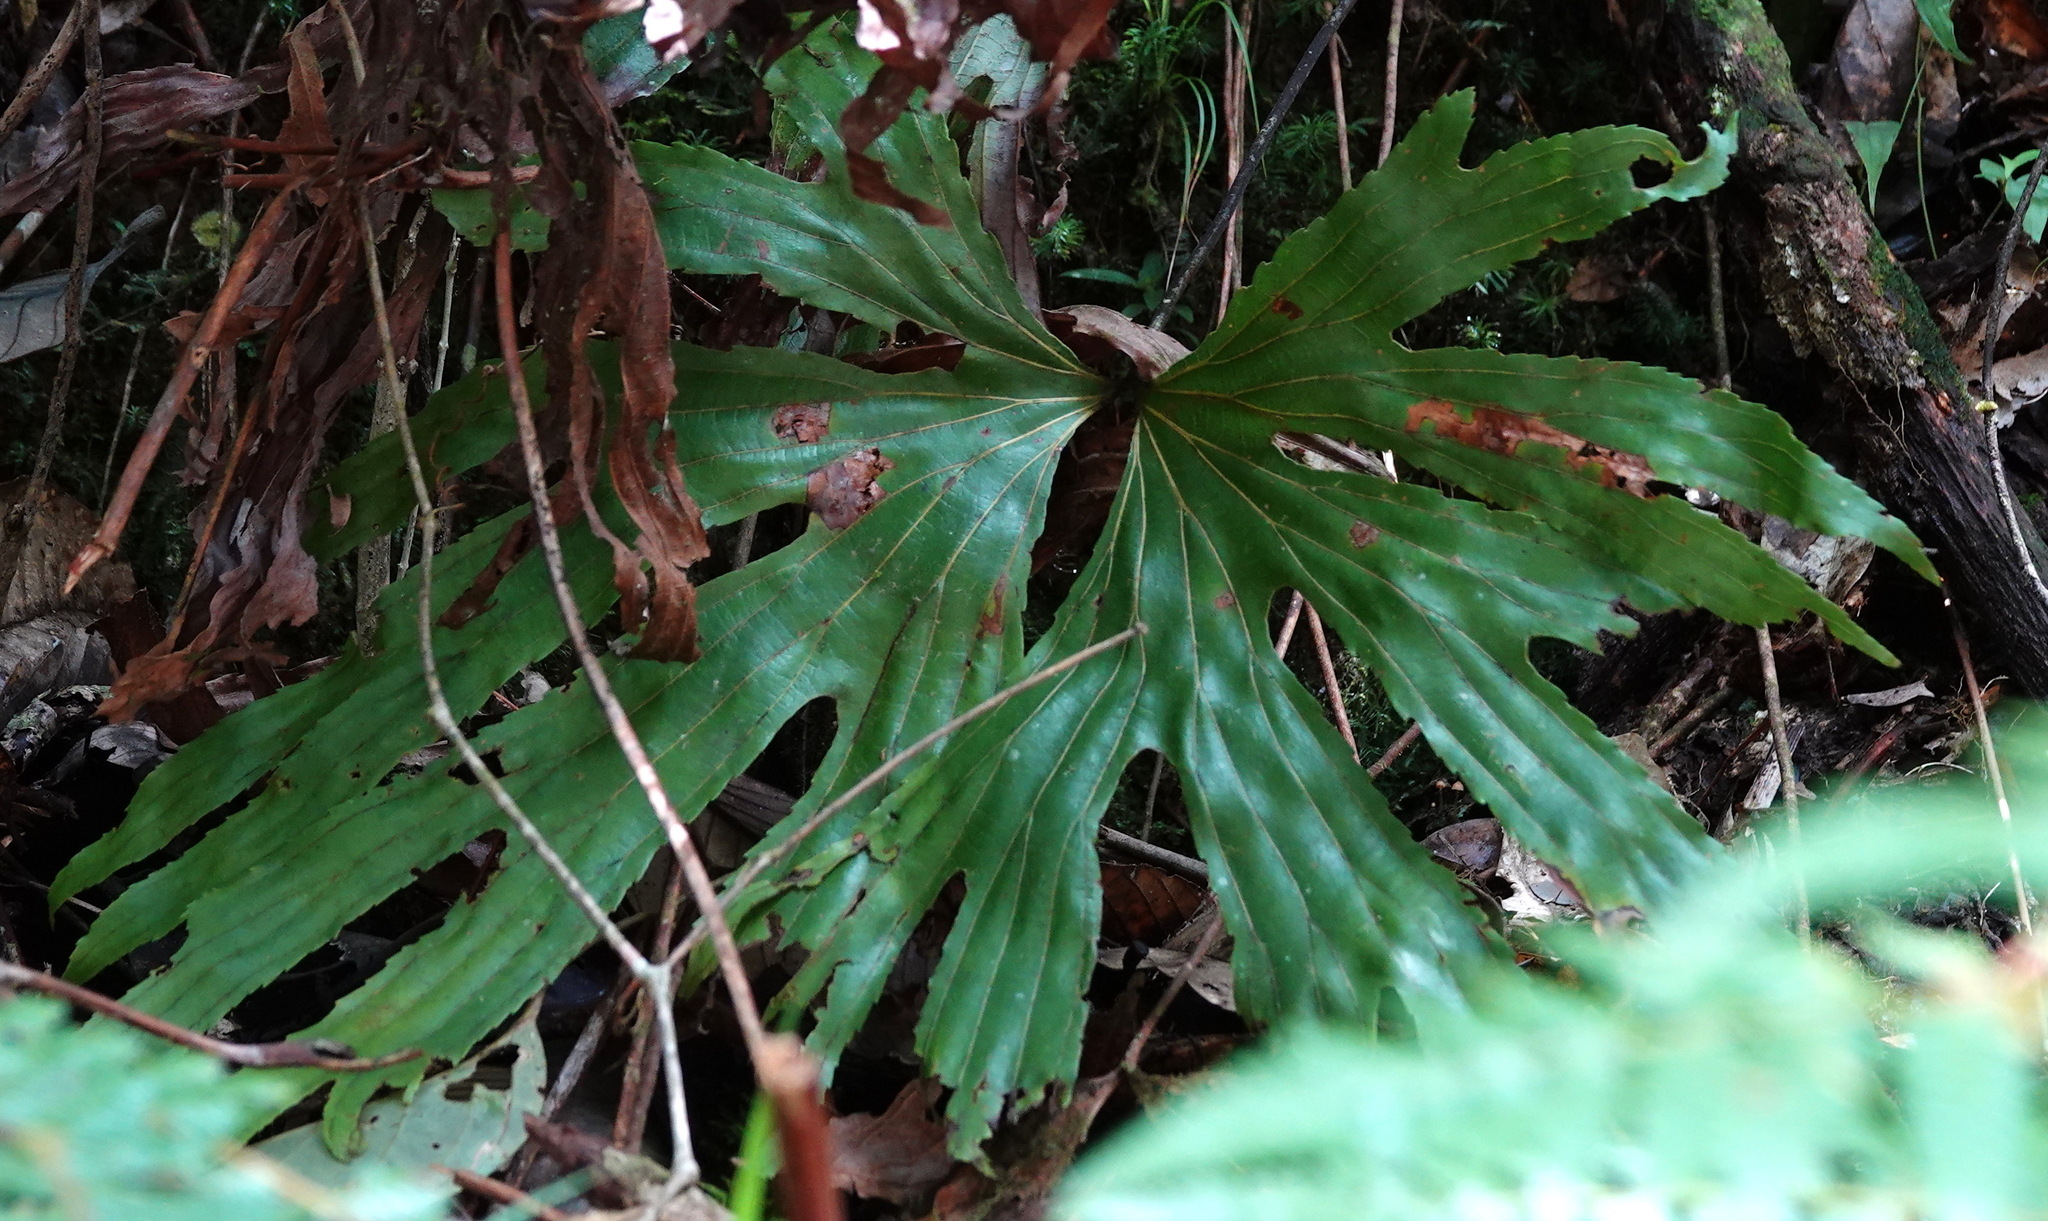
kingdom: Plantae
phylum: Tracheophyta
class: Polypodiopsida
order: Gleicheniales
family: Dipteridaceae
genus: Dipteris
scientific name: Dipteris conjugata
